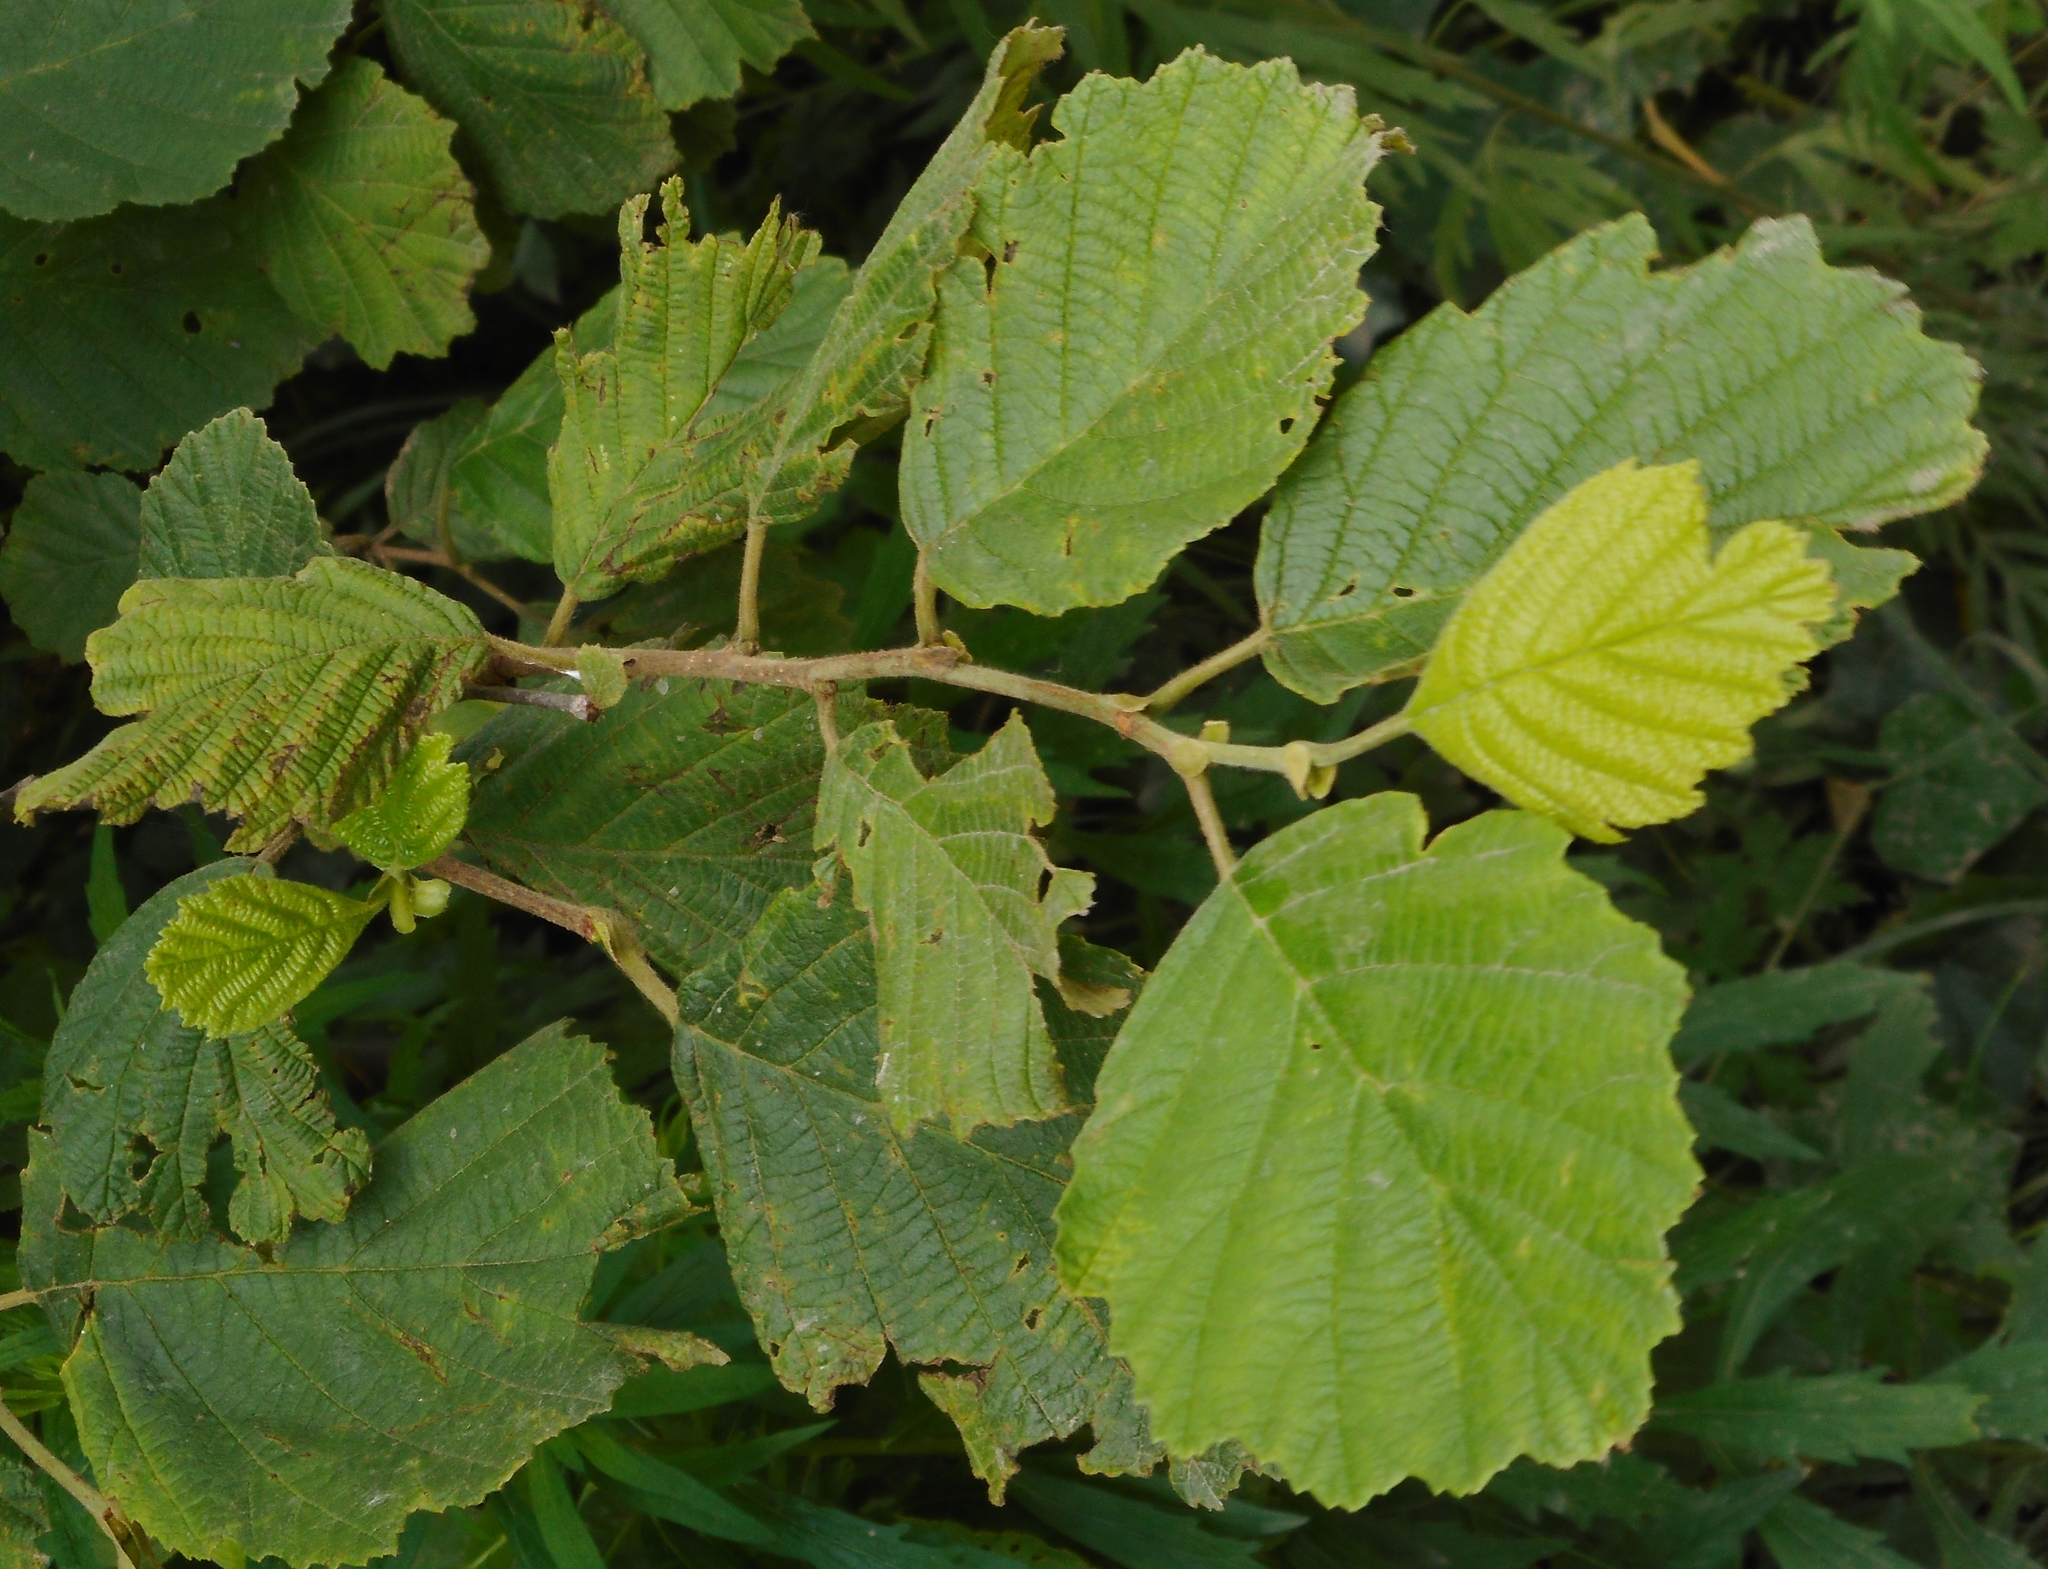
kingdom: Plantae
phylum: Tracheophyta
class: Magnoliopsida
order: Fagales
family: Betulaceae
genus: Alnus
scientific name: Alnus hirsuta
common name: Manchurian alder
